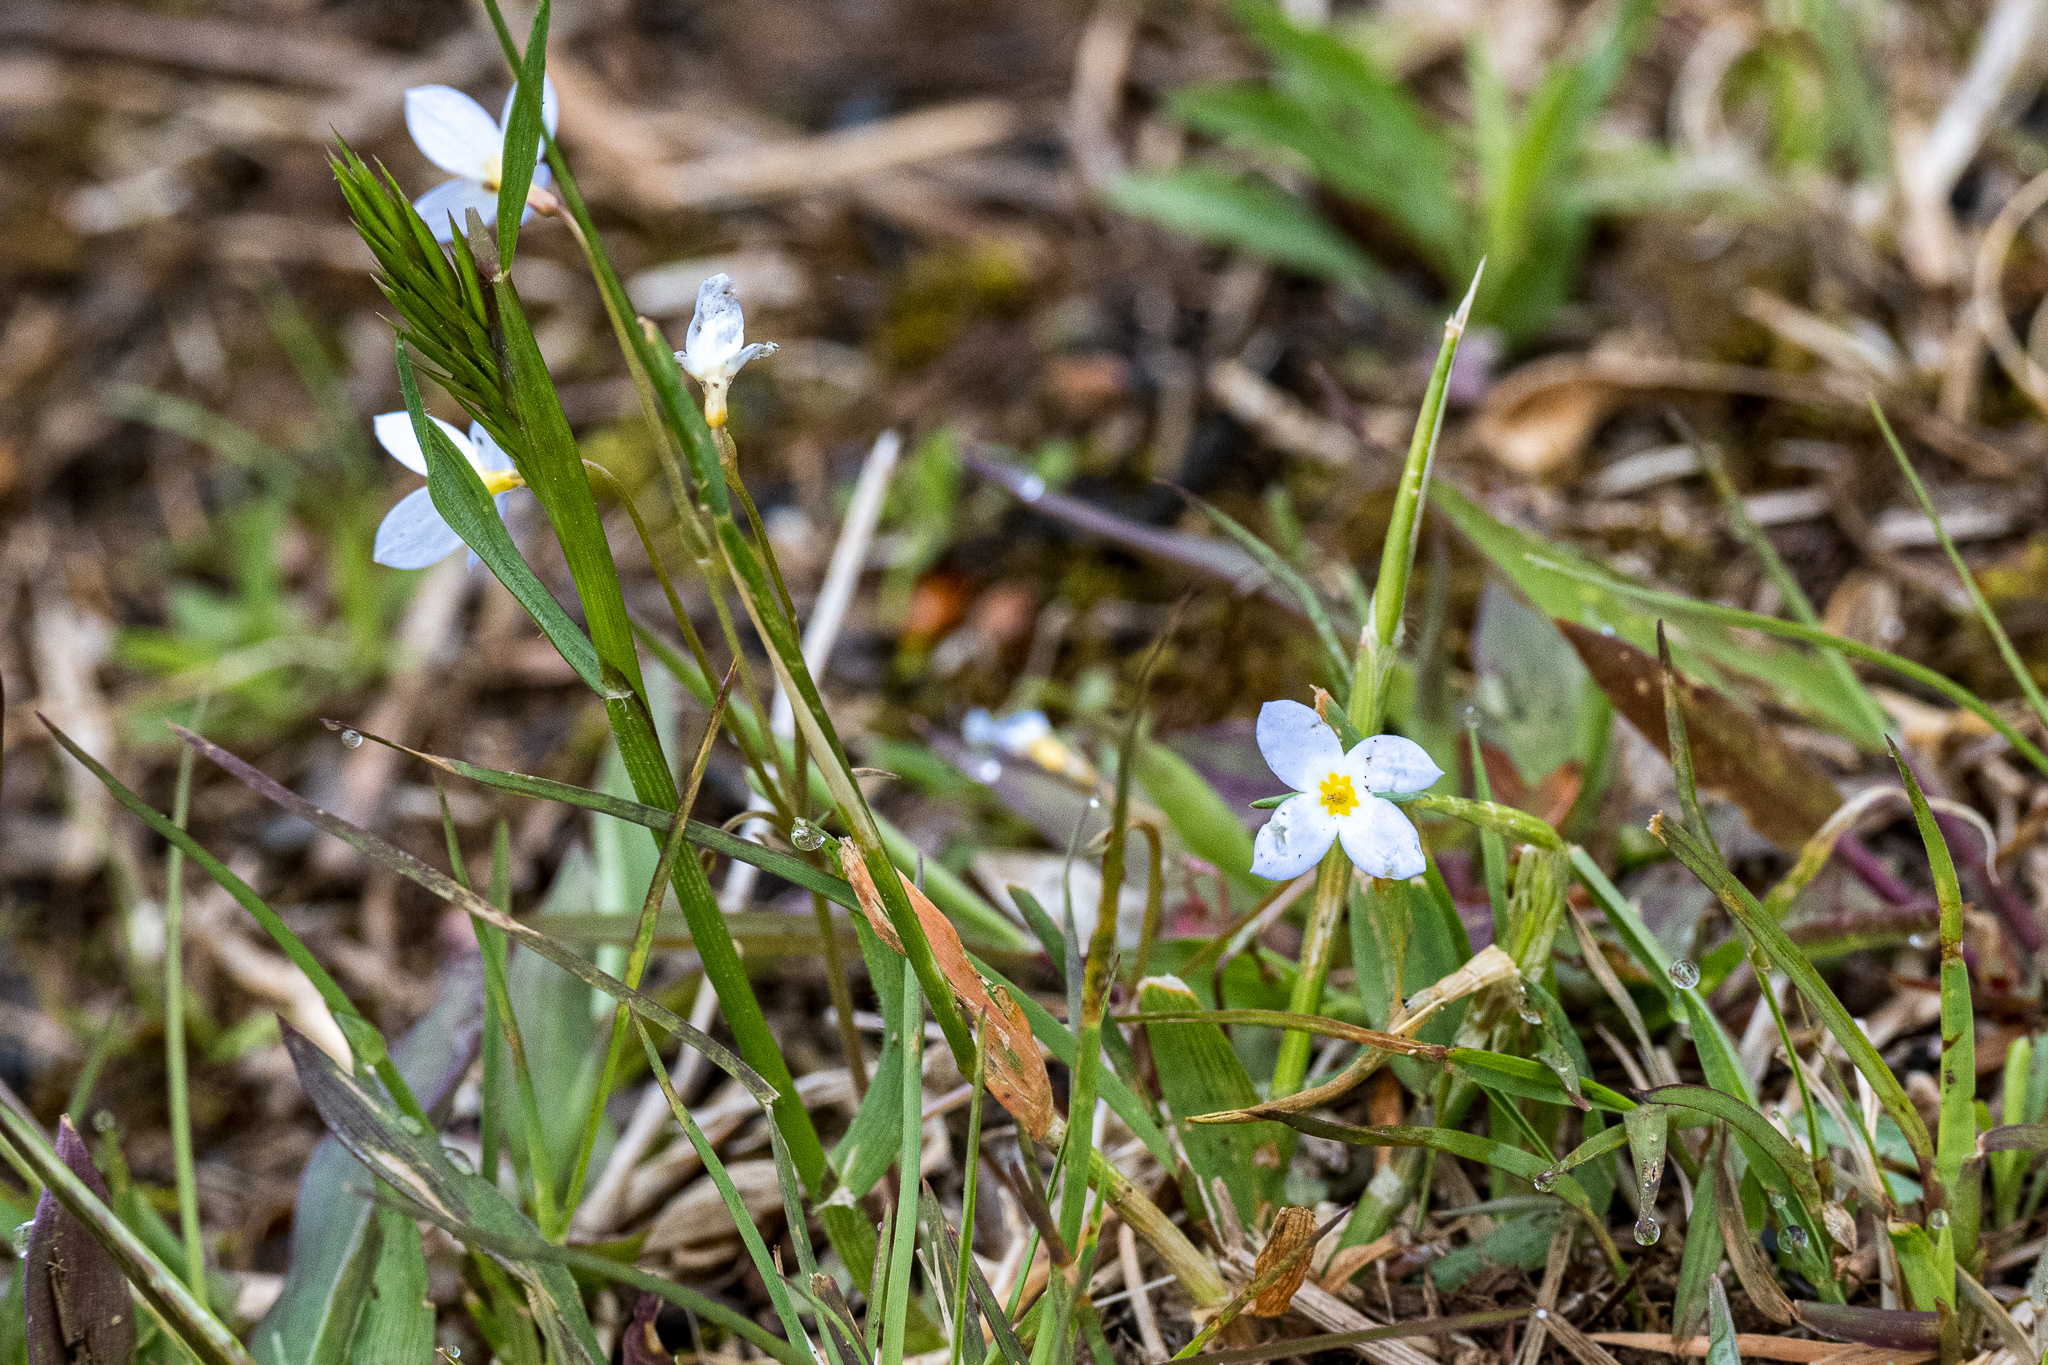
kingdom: Plantae
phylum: Tracheophyta
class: Magnoliopsida
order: Gentianales
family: Rubiaceae
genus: Houstonia
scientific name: Houstonia caerulea
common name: Bluets
